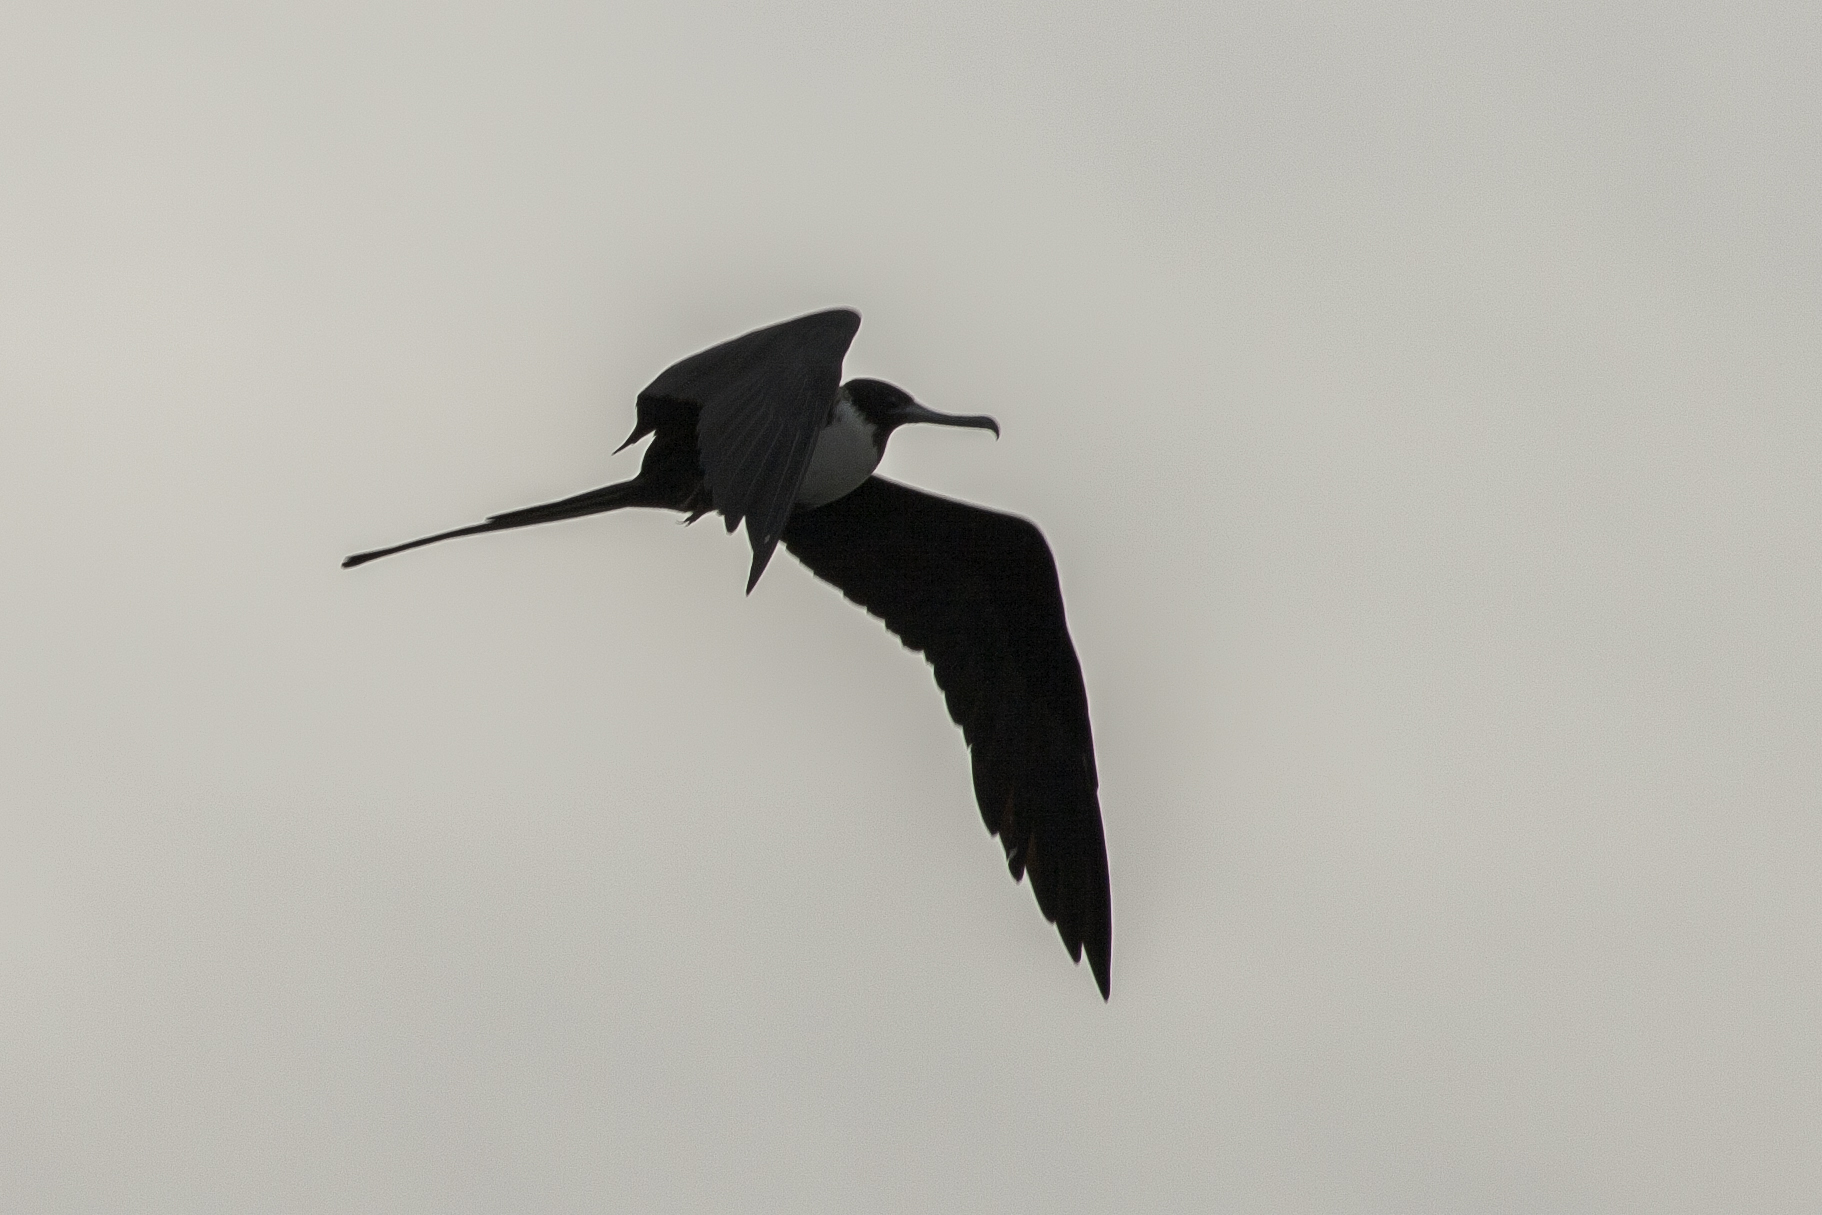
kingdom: Animalia
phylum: Chordata
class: Aves
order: Suliformes
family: Fregatidae
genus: Fregata
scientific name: Fregata magnificens
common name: Magnificent frigatebird
